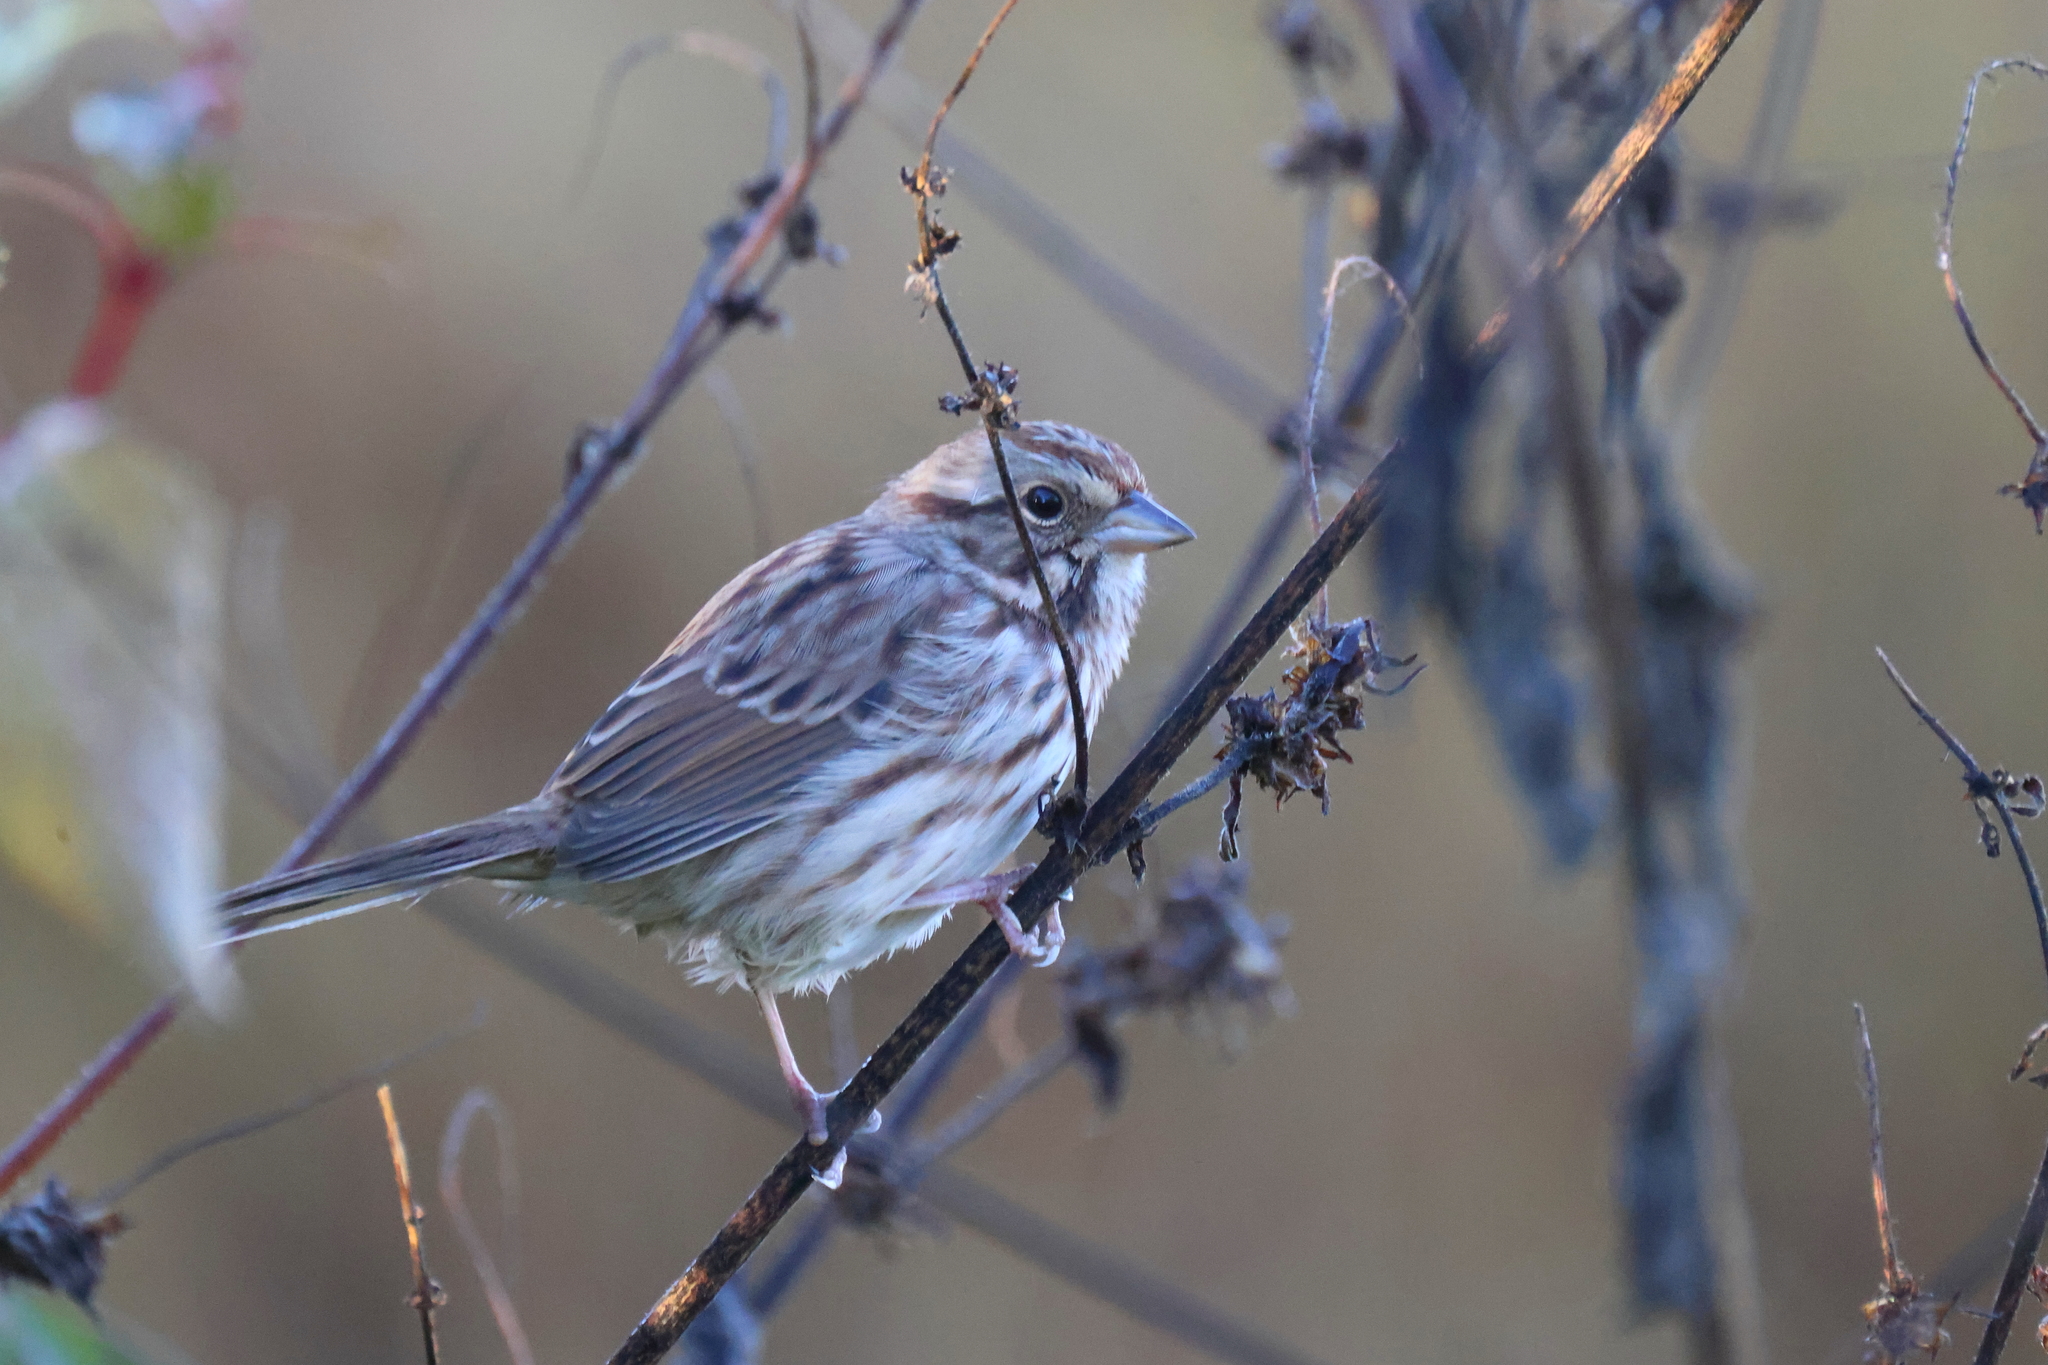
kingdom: Animalia
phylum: Chordata
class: Aves
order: Passeriformes
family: Passerellidae
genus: Melospiza
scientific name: Melospiza melodia
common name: Song sparrow
